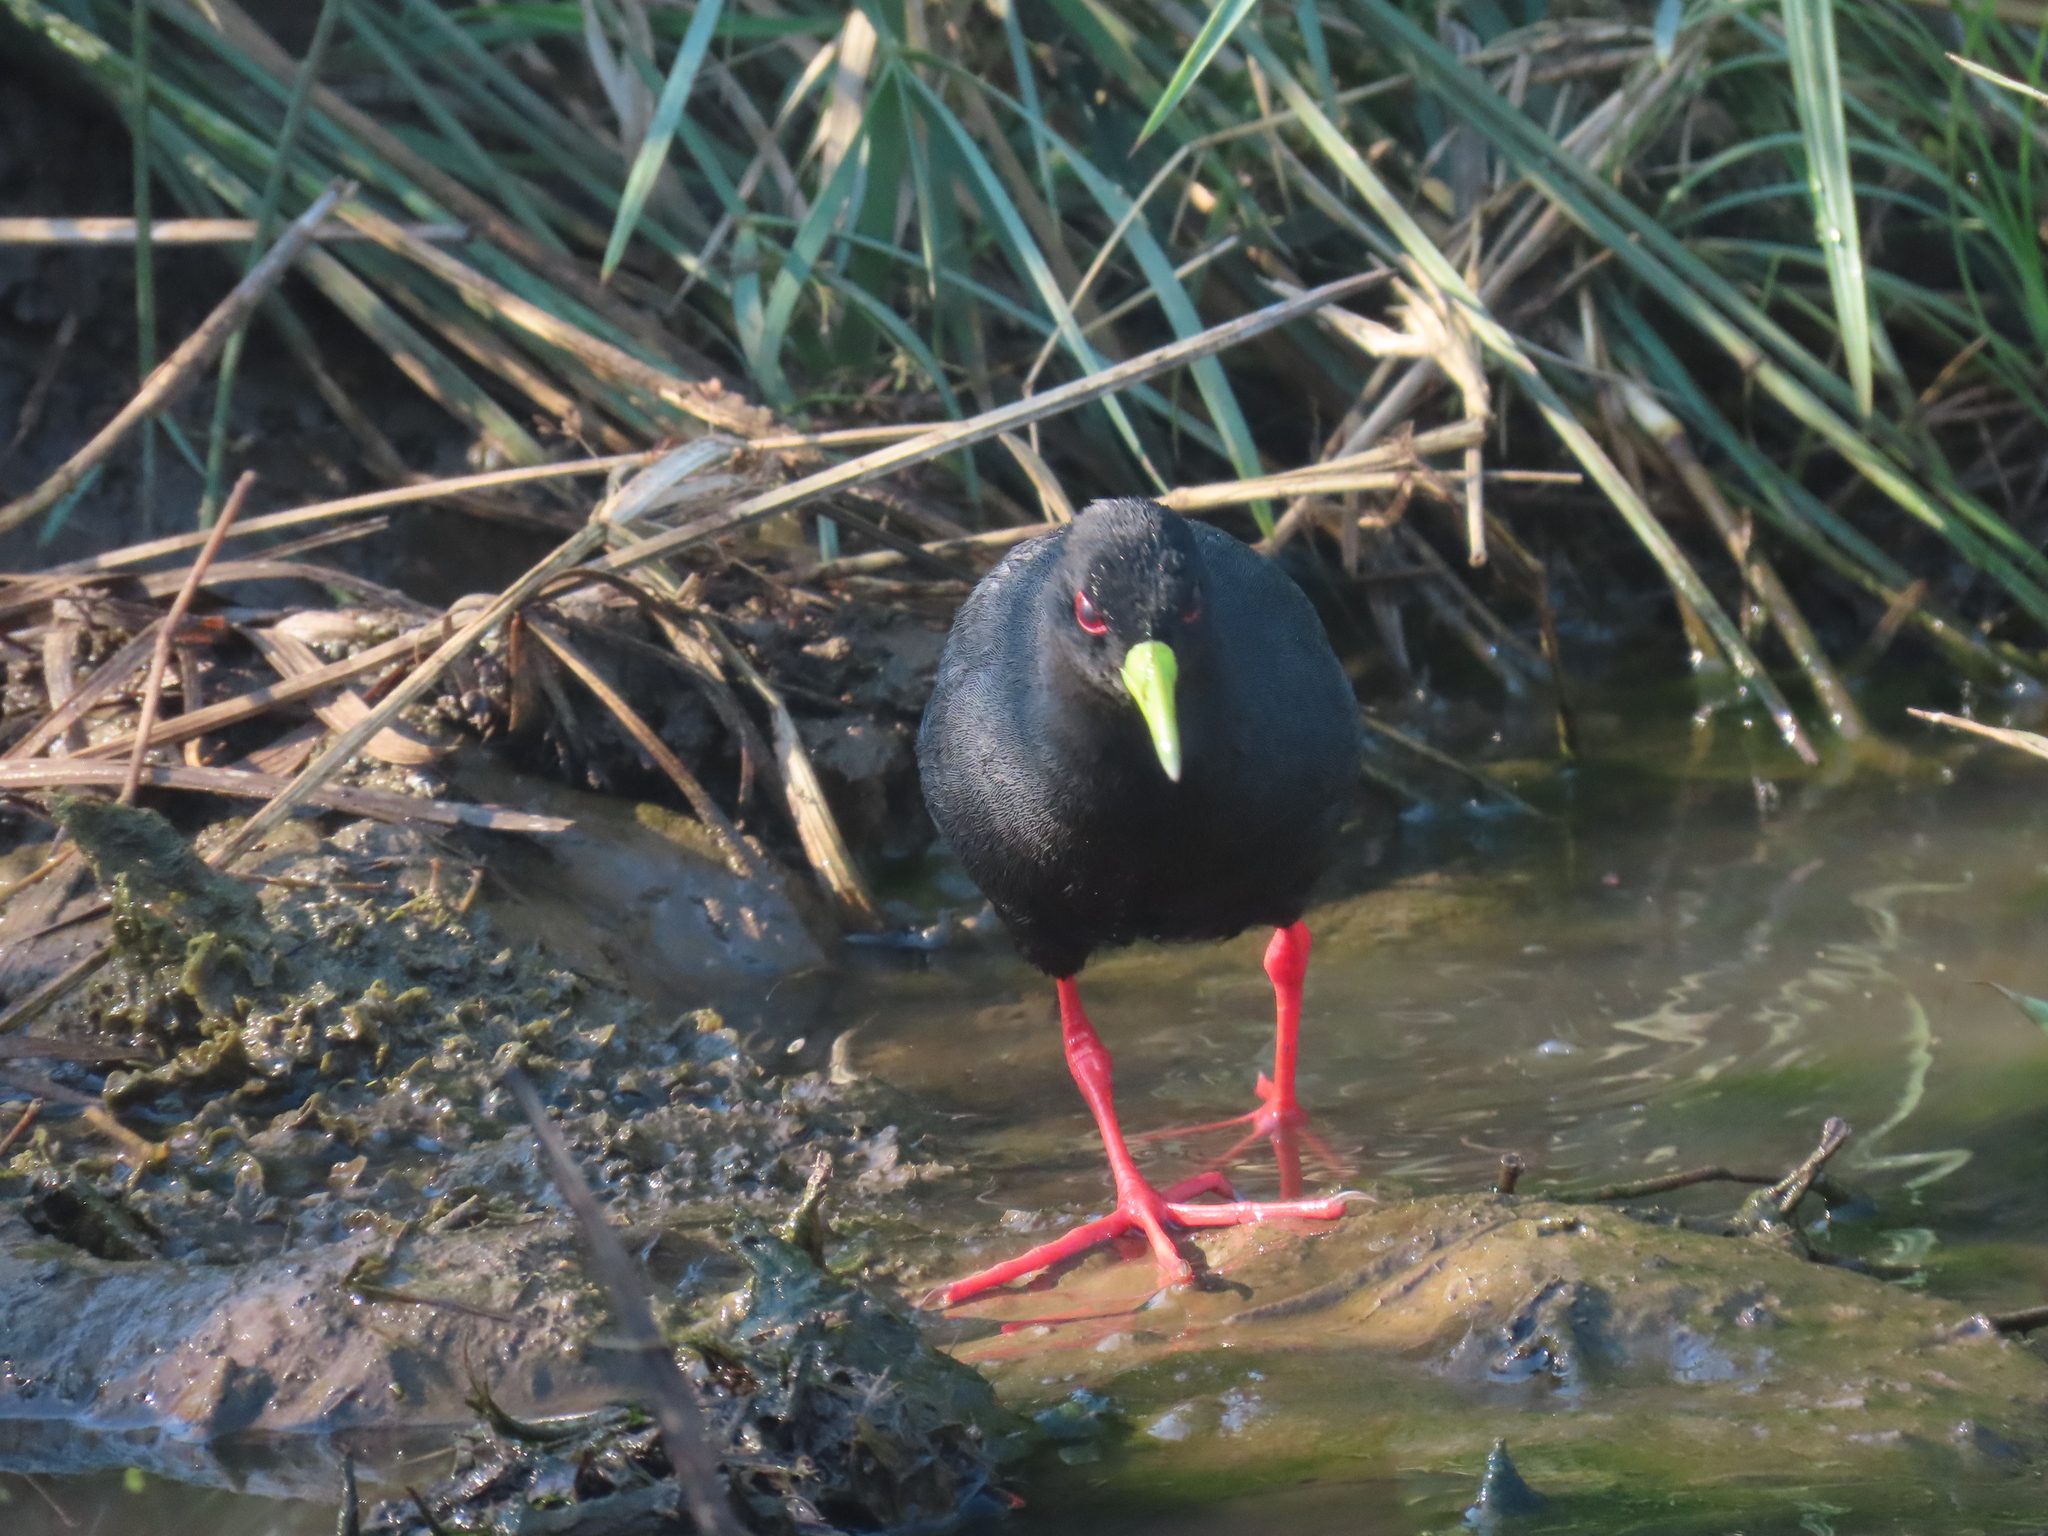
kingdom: Animalia
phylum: Chordata
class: Aves
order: Gruiformes
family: Rallidae
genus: Amaurornis
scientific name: Amaurornis flavirostra
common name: Black crake
